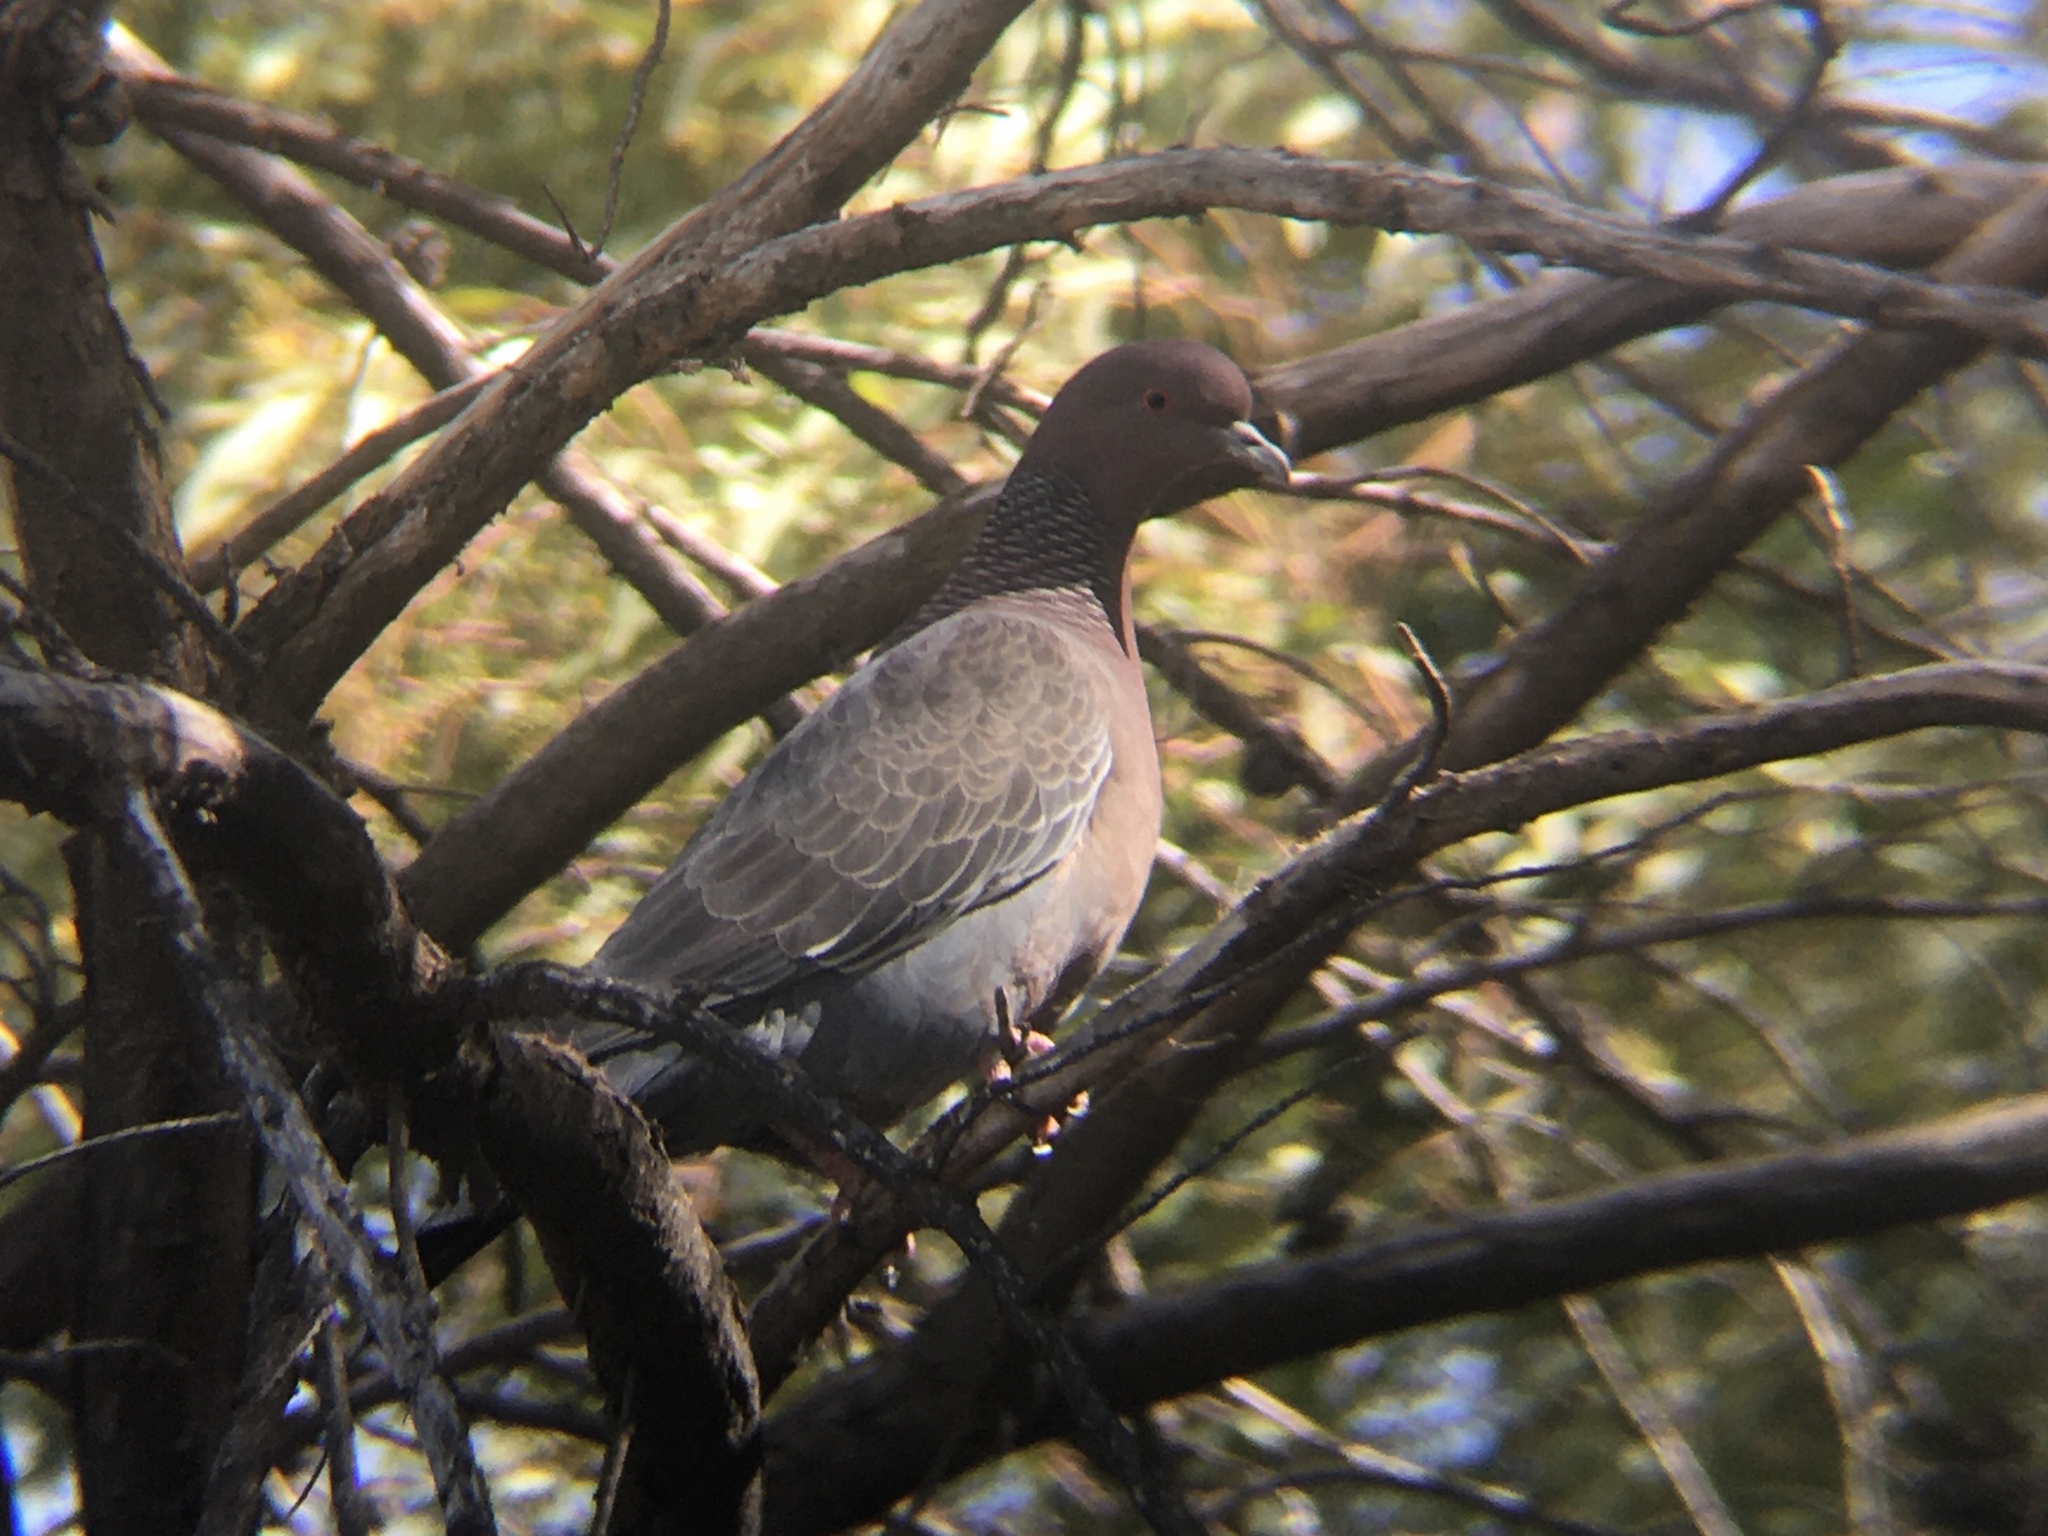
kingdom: Animalia
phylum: Chordata
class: Aves
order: Columbiformes
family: Columbidae
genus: Patagioenas
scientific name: Patagioenas picazuro
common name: Picazuro pigeon
